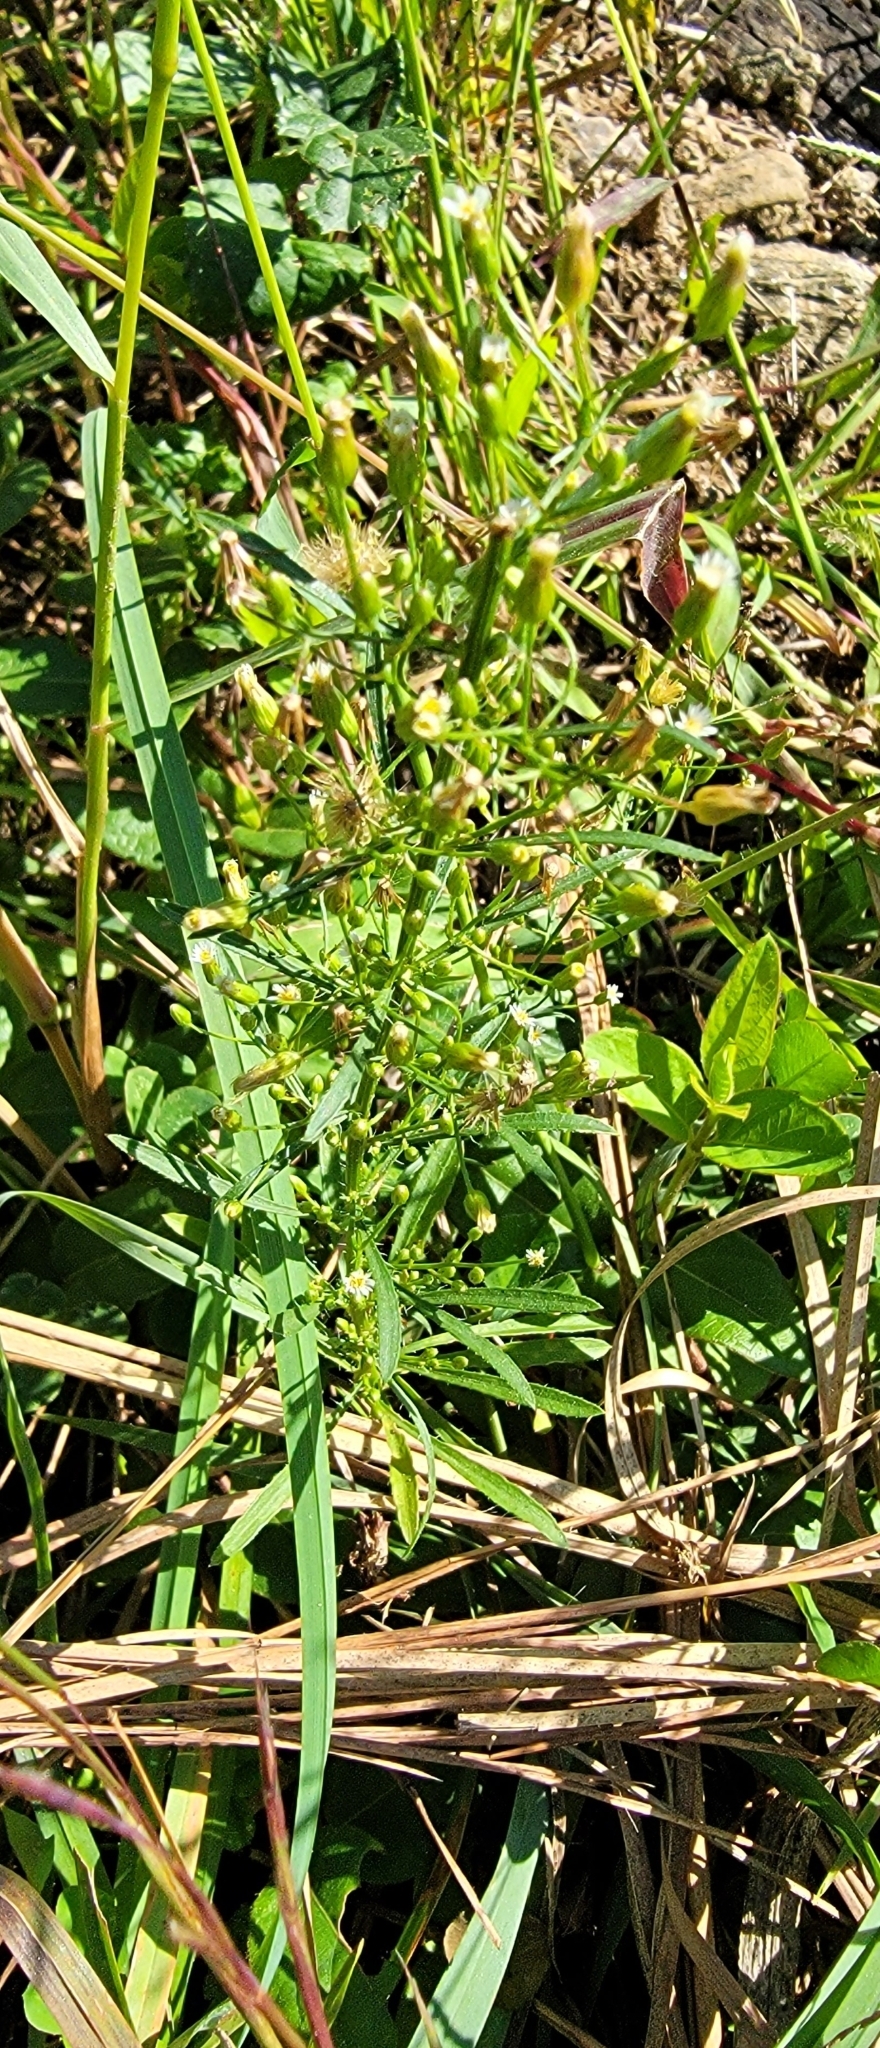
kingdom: Plantae
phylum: Tracheophyta
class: Magnoliopsida
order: Asterales
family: Asteraceae
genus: Erigeron
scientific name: Erigeron canadensis
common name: Canadian fleabane
